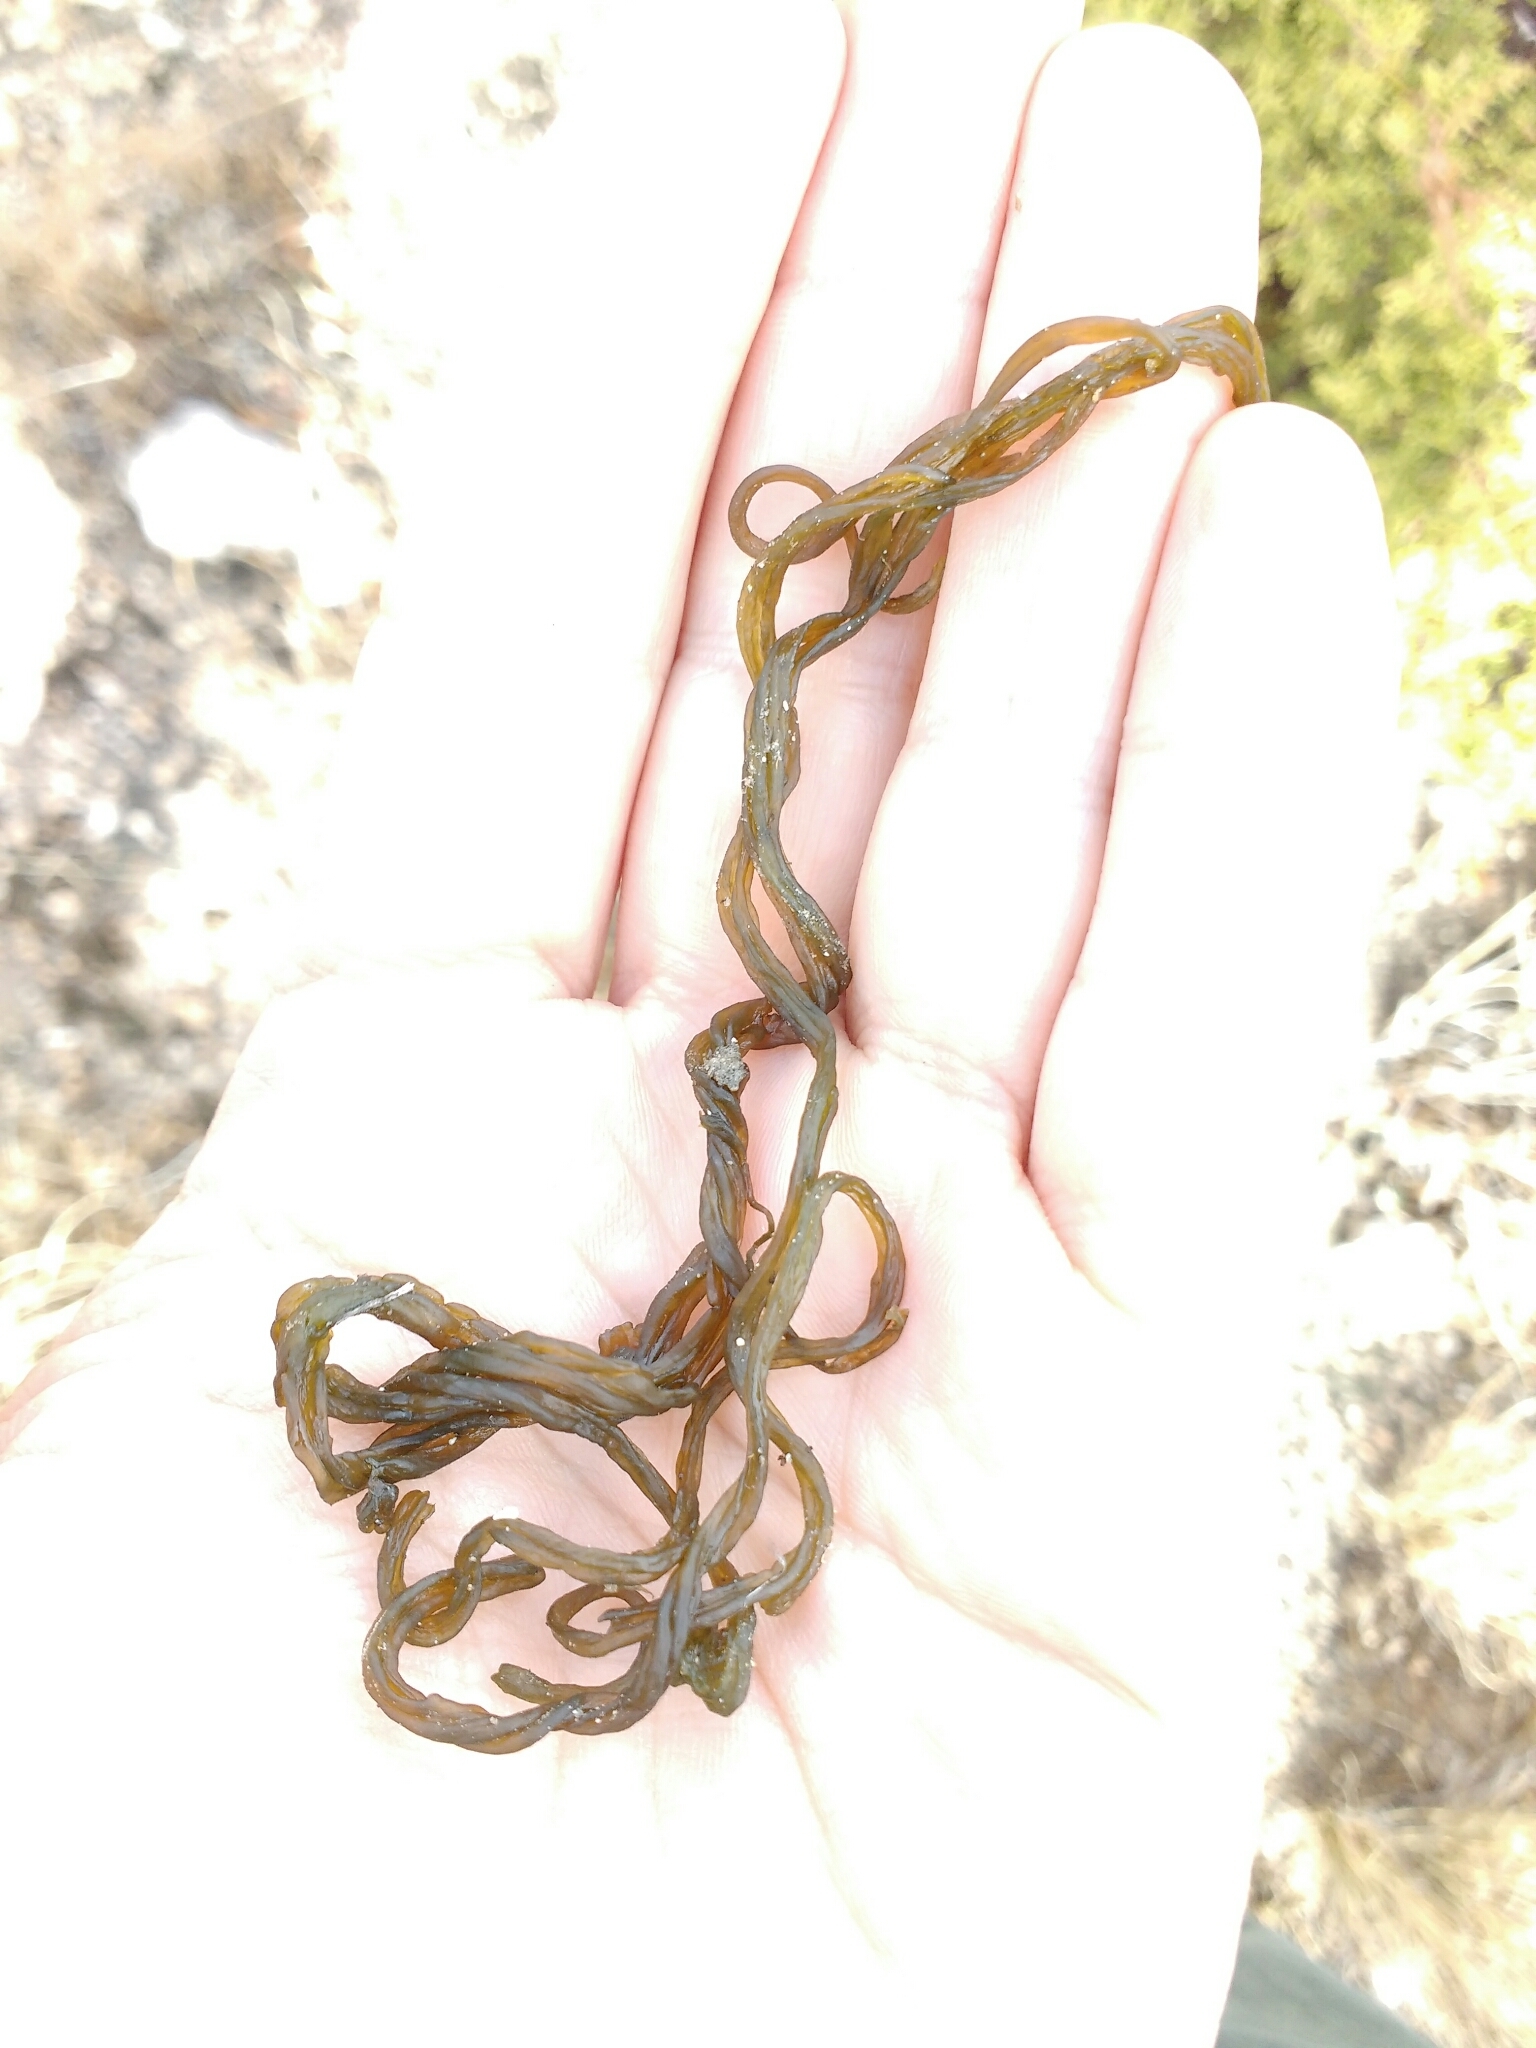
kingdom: Bacteria
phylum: Cyanobacteria
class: Cyanobacteriia
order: Cyanobacteriales
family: Nostocaceae
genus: Nostoc
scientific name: Nostoc commune
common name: Star jelly
